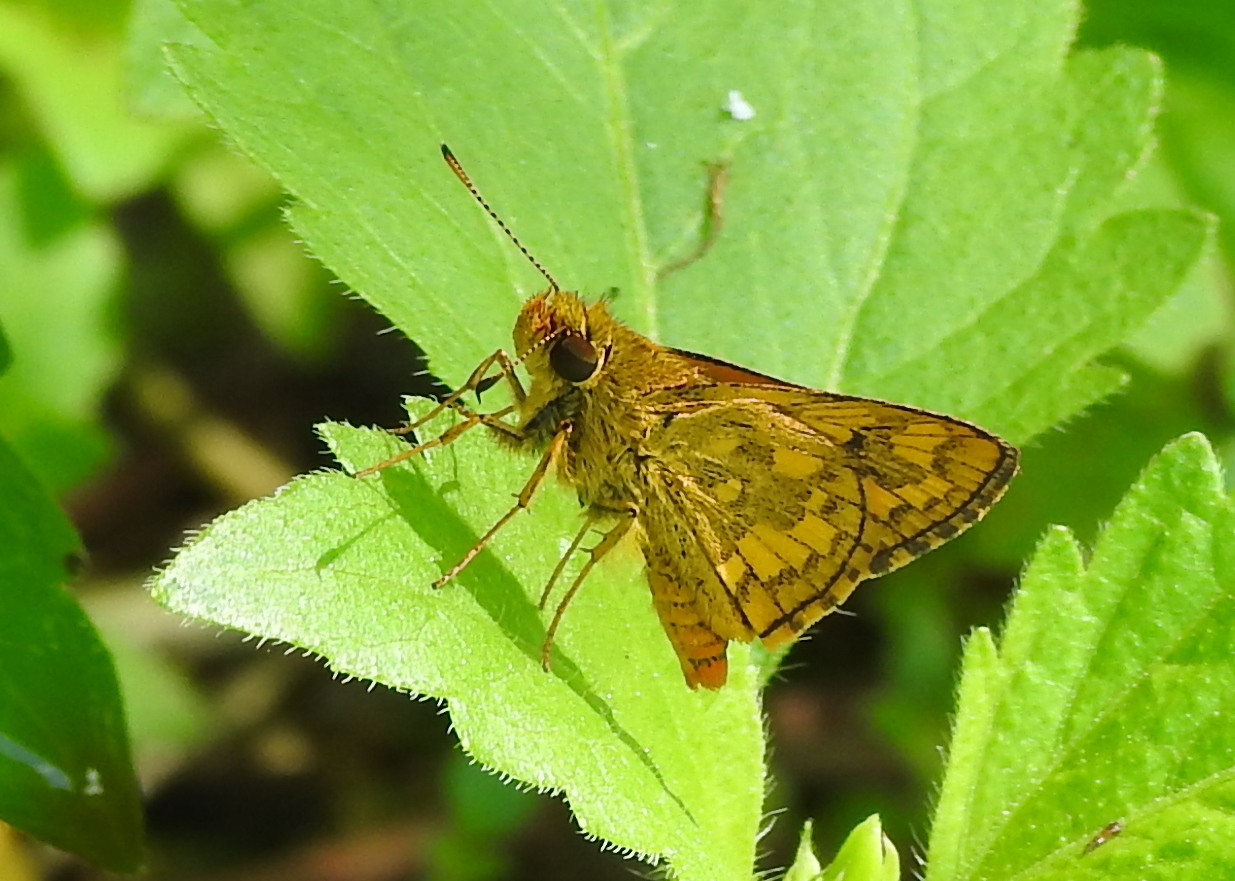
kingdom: Animalia
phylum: Arthropoda
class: Insecta
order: Lepidoptera
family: Hesperiidae
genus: Potanthus
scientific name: Potanthus omaha
